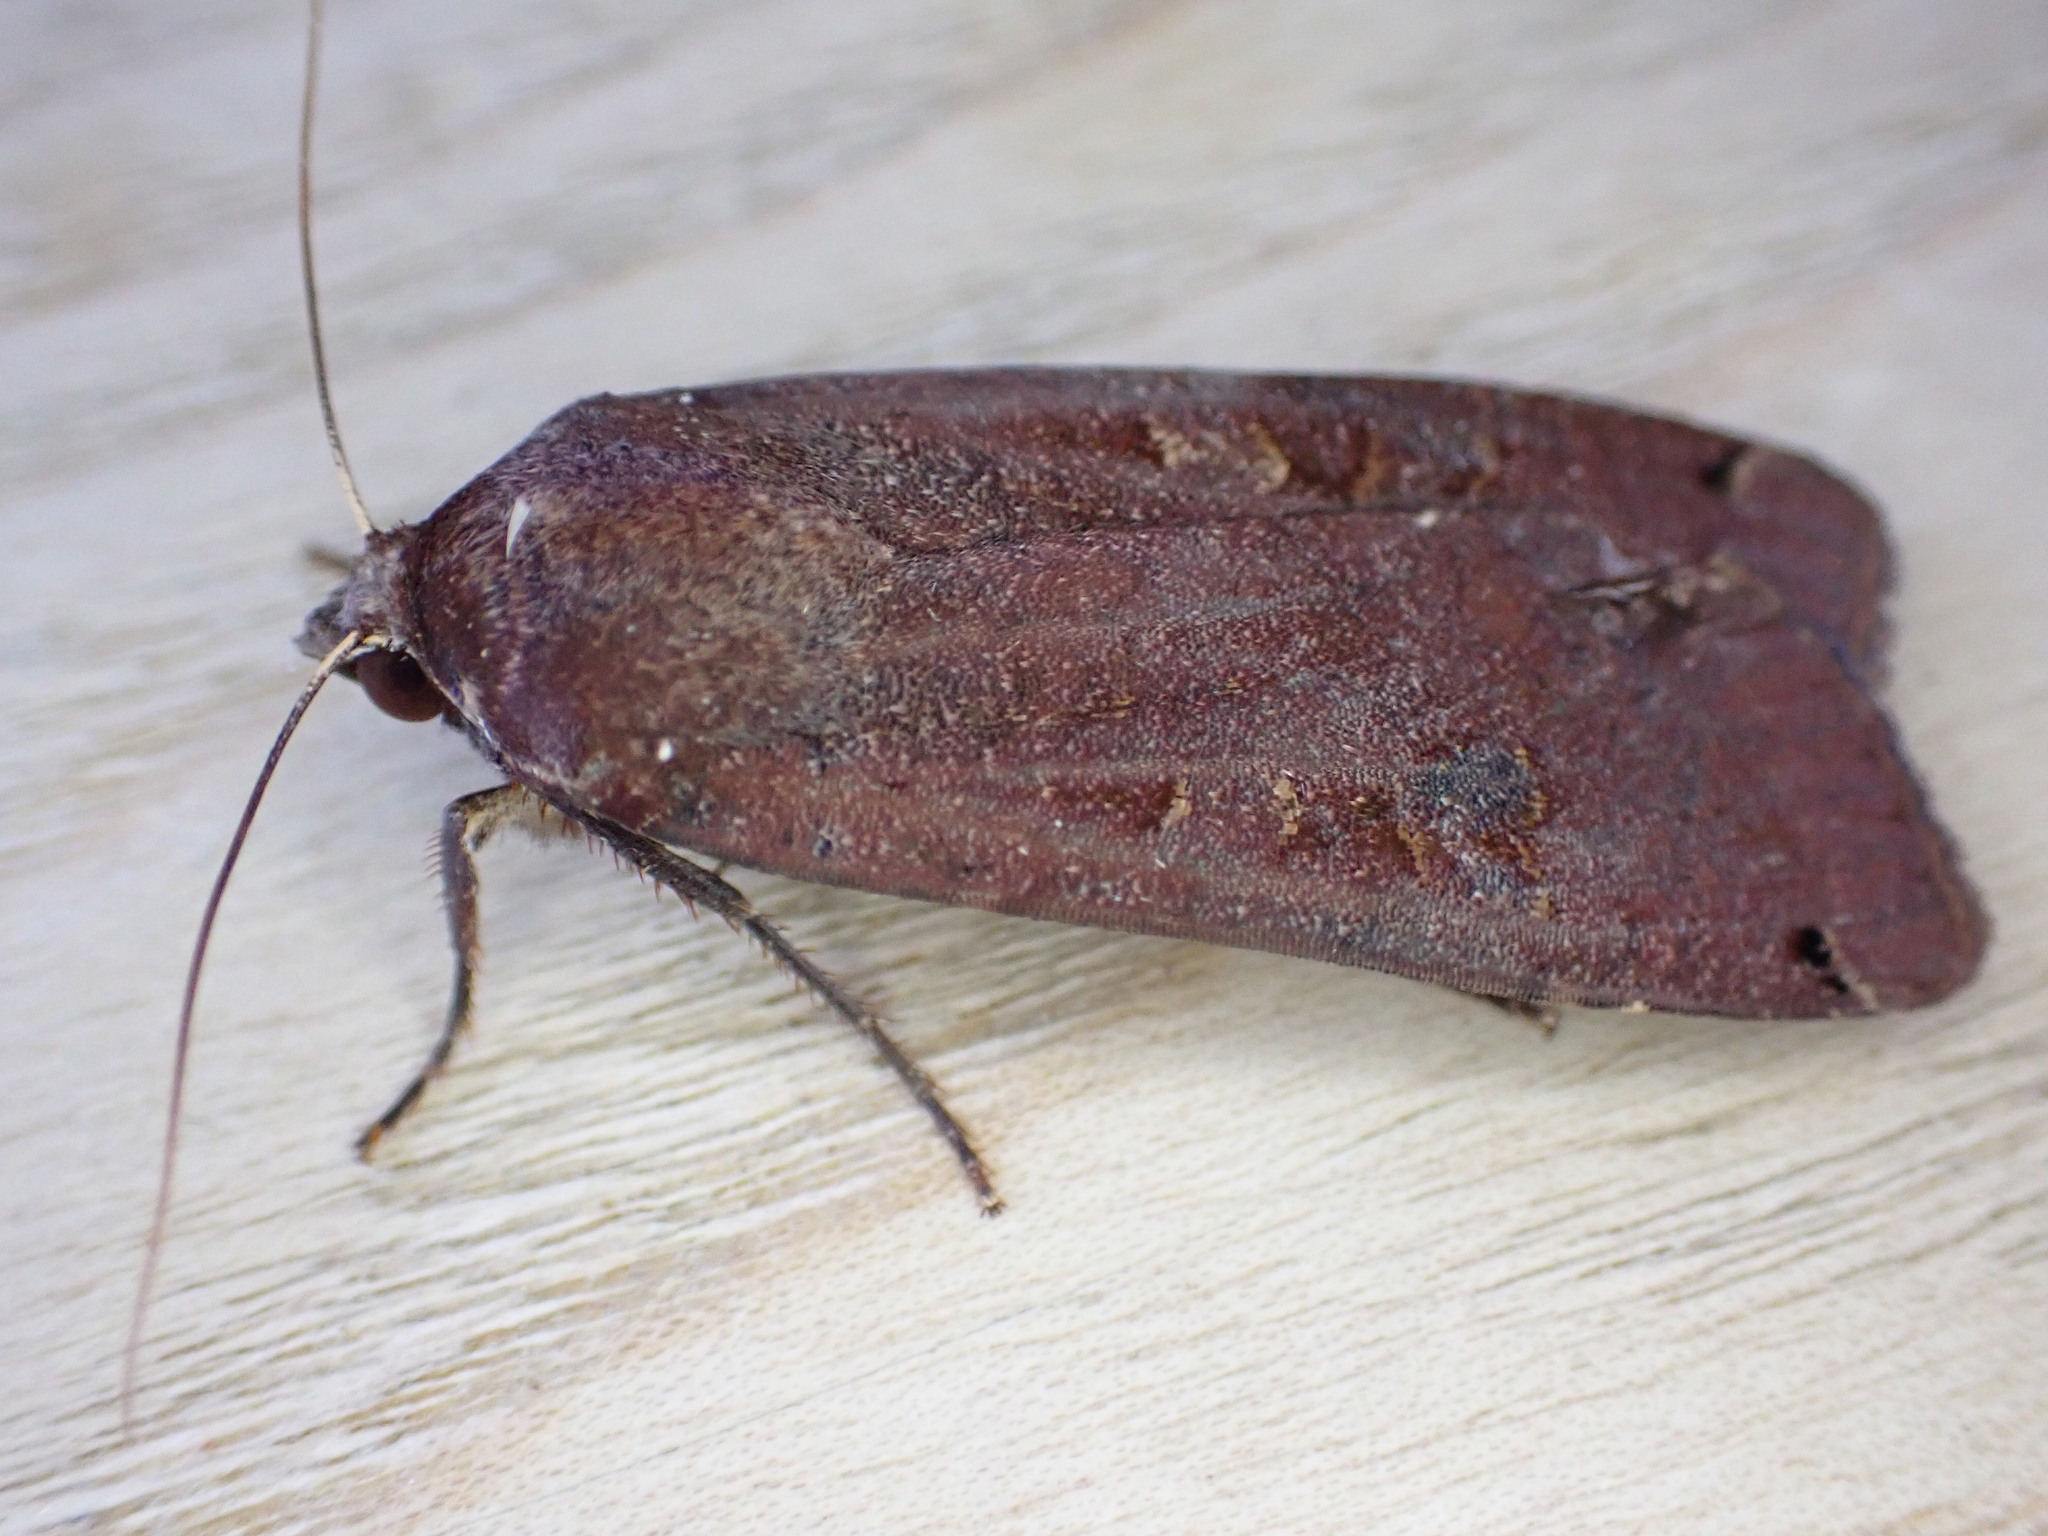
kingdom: Animalia
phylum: Arthropoda
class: Insecta
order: Lepidoptera
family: Noctuidae
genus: Noctua
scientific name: Noctua pronuba
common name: Large yellow underwing
